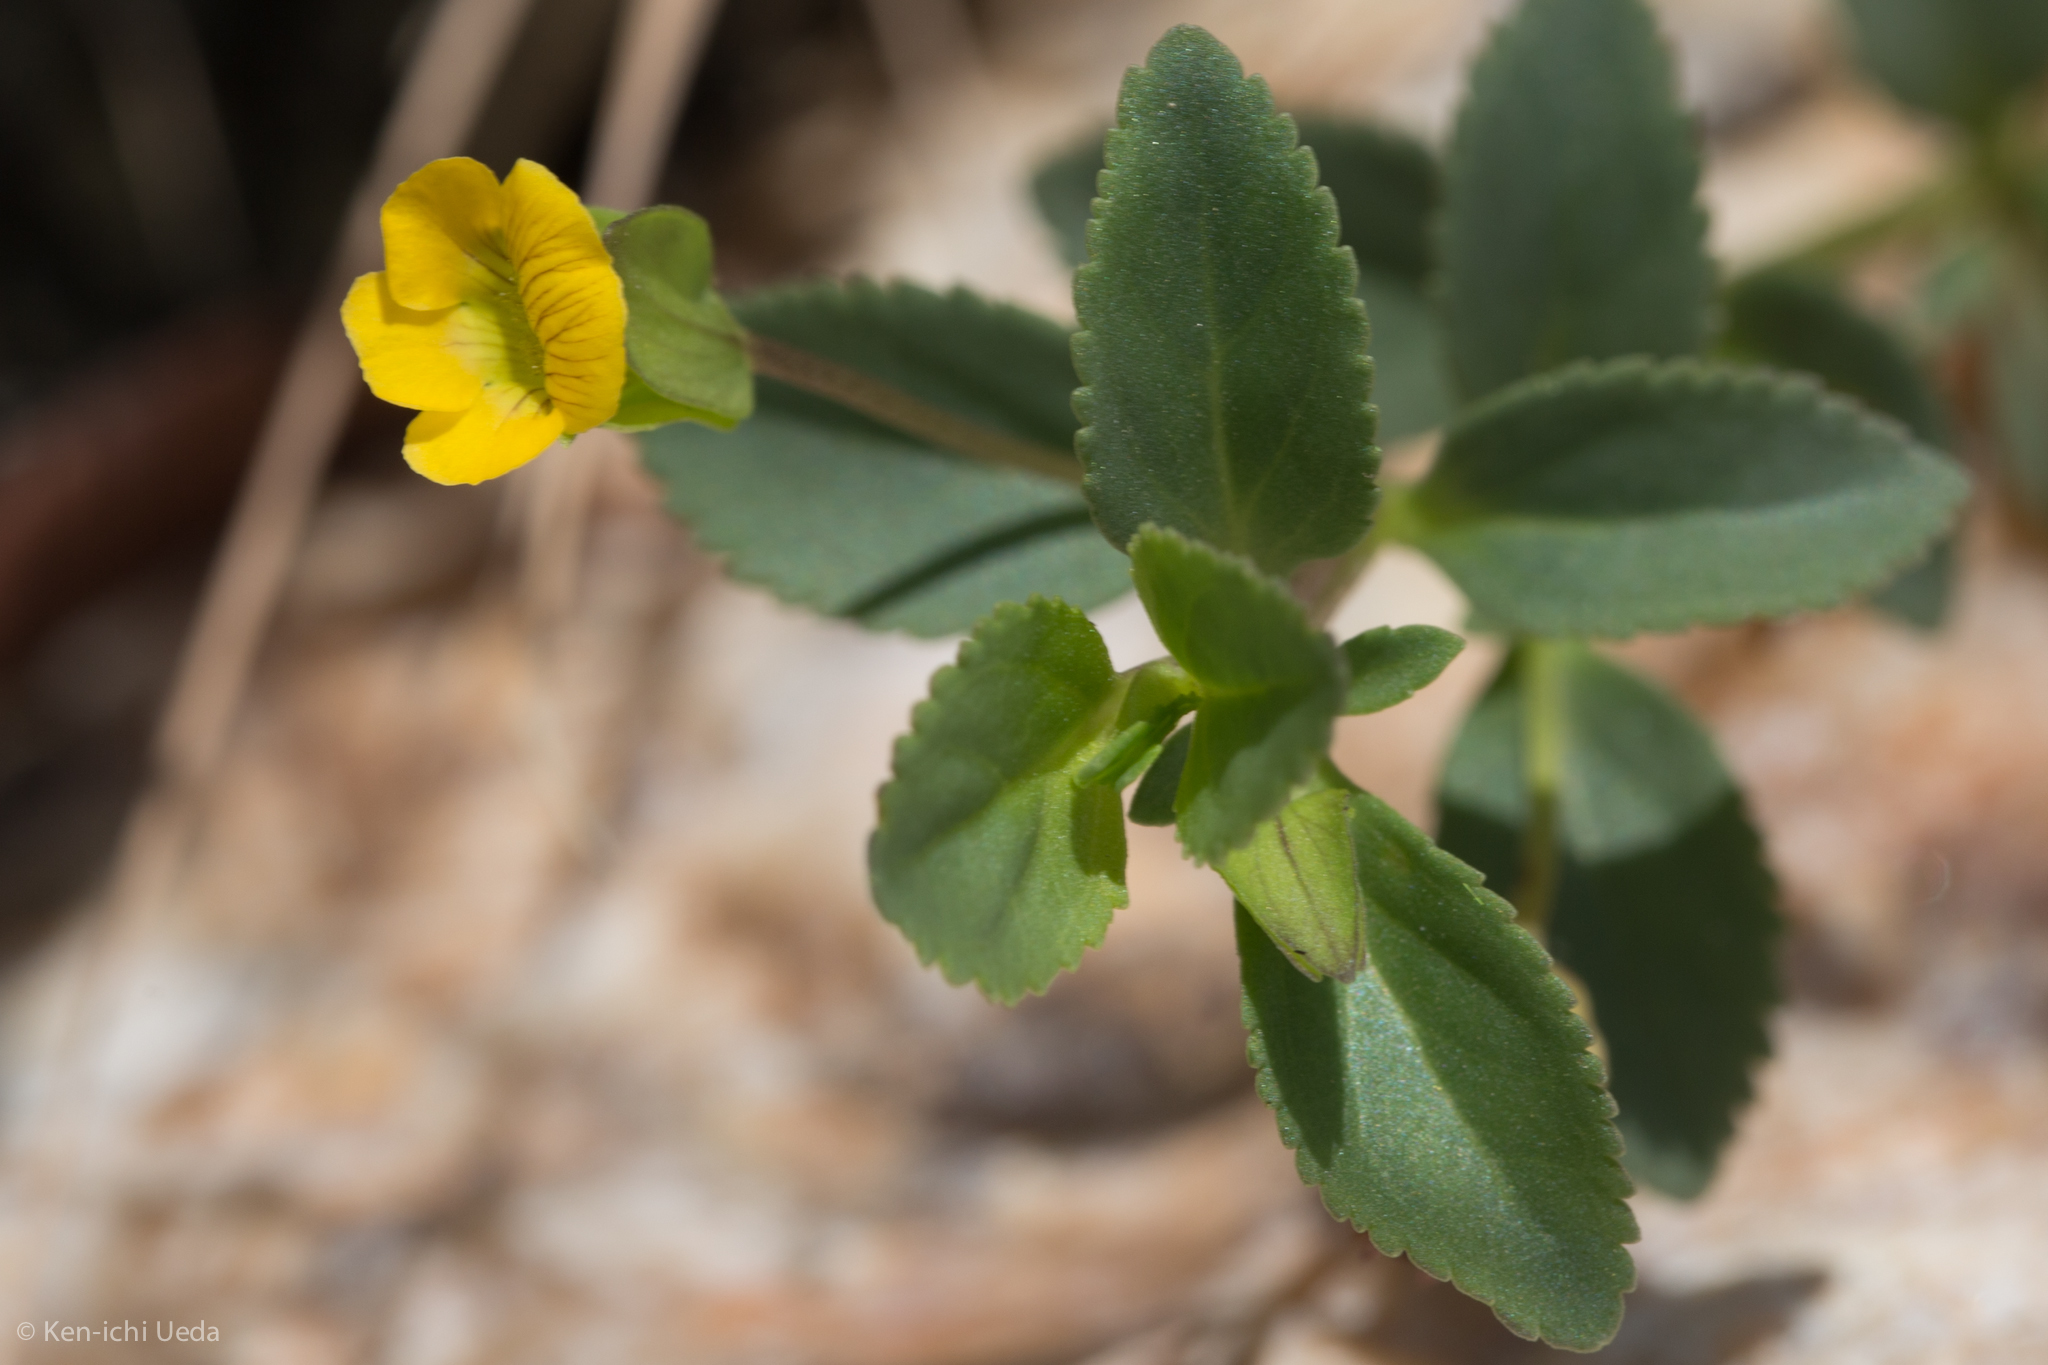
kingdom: Plantae
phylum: Tracheophyta
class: Magnoliopsida
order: Lamiales
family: Plantaginaceae
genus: Mecardonia
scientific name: Mecardonia procumbens
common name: Baby jump-up
